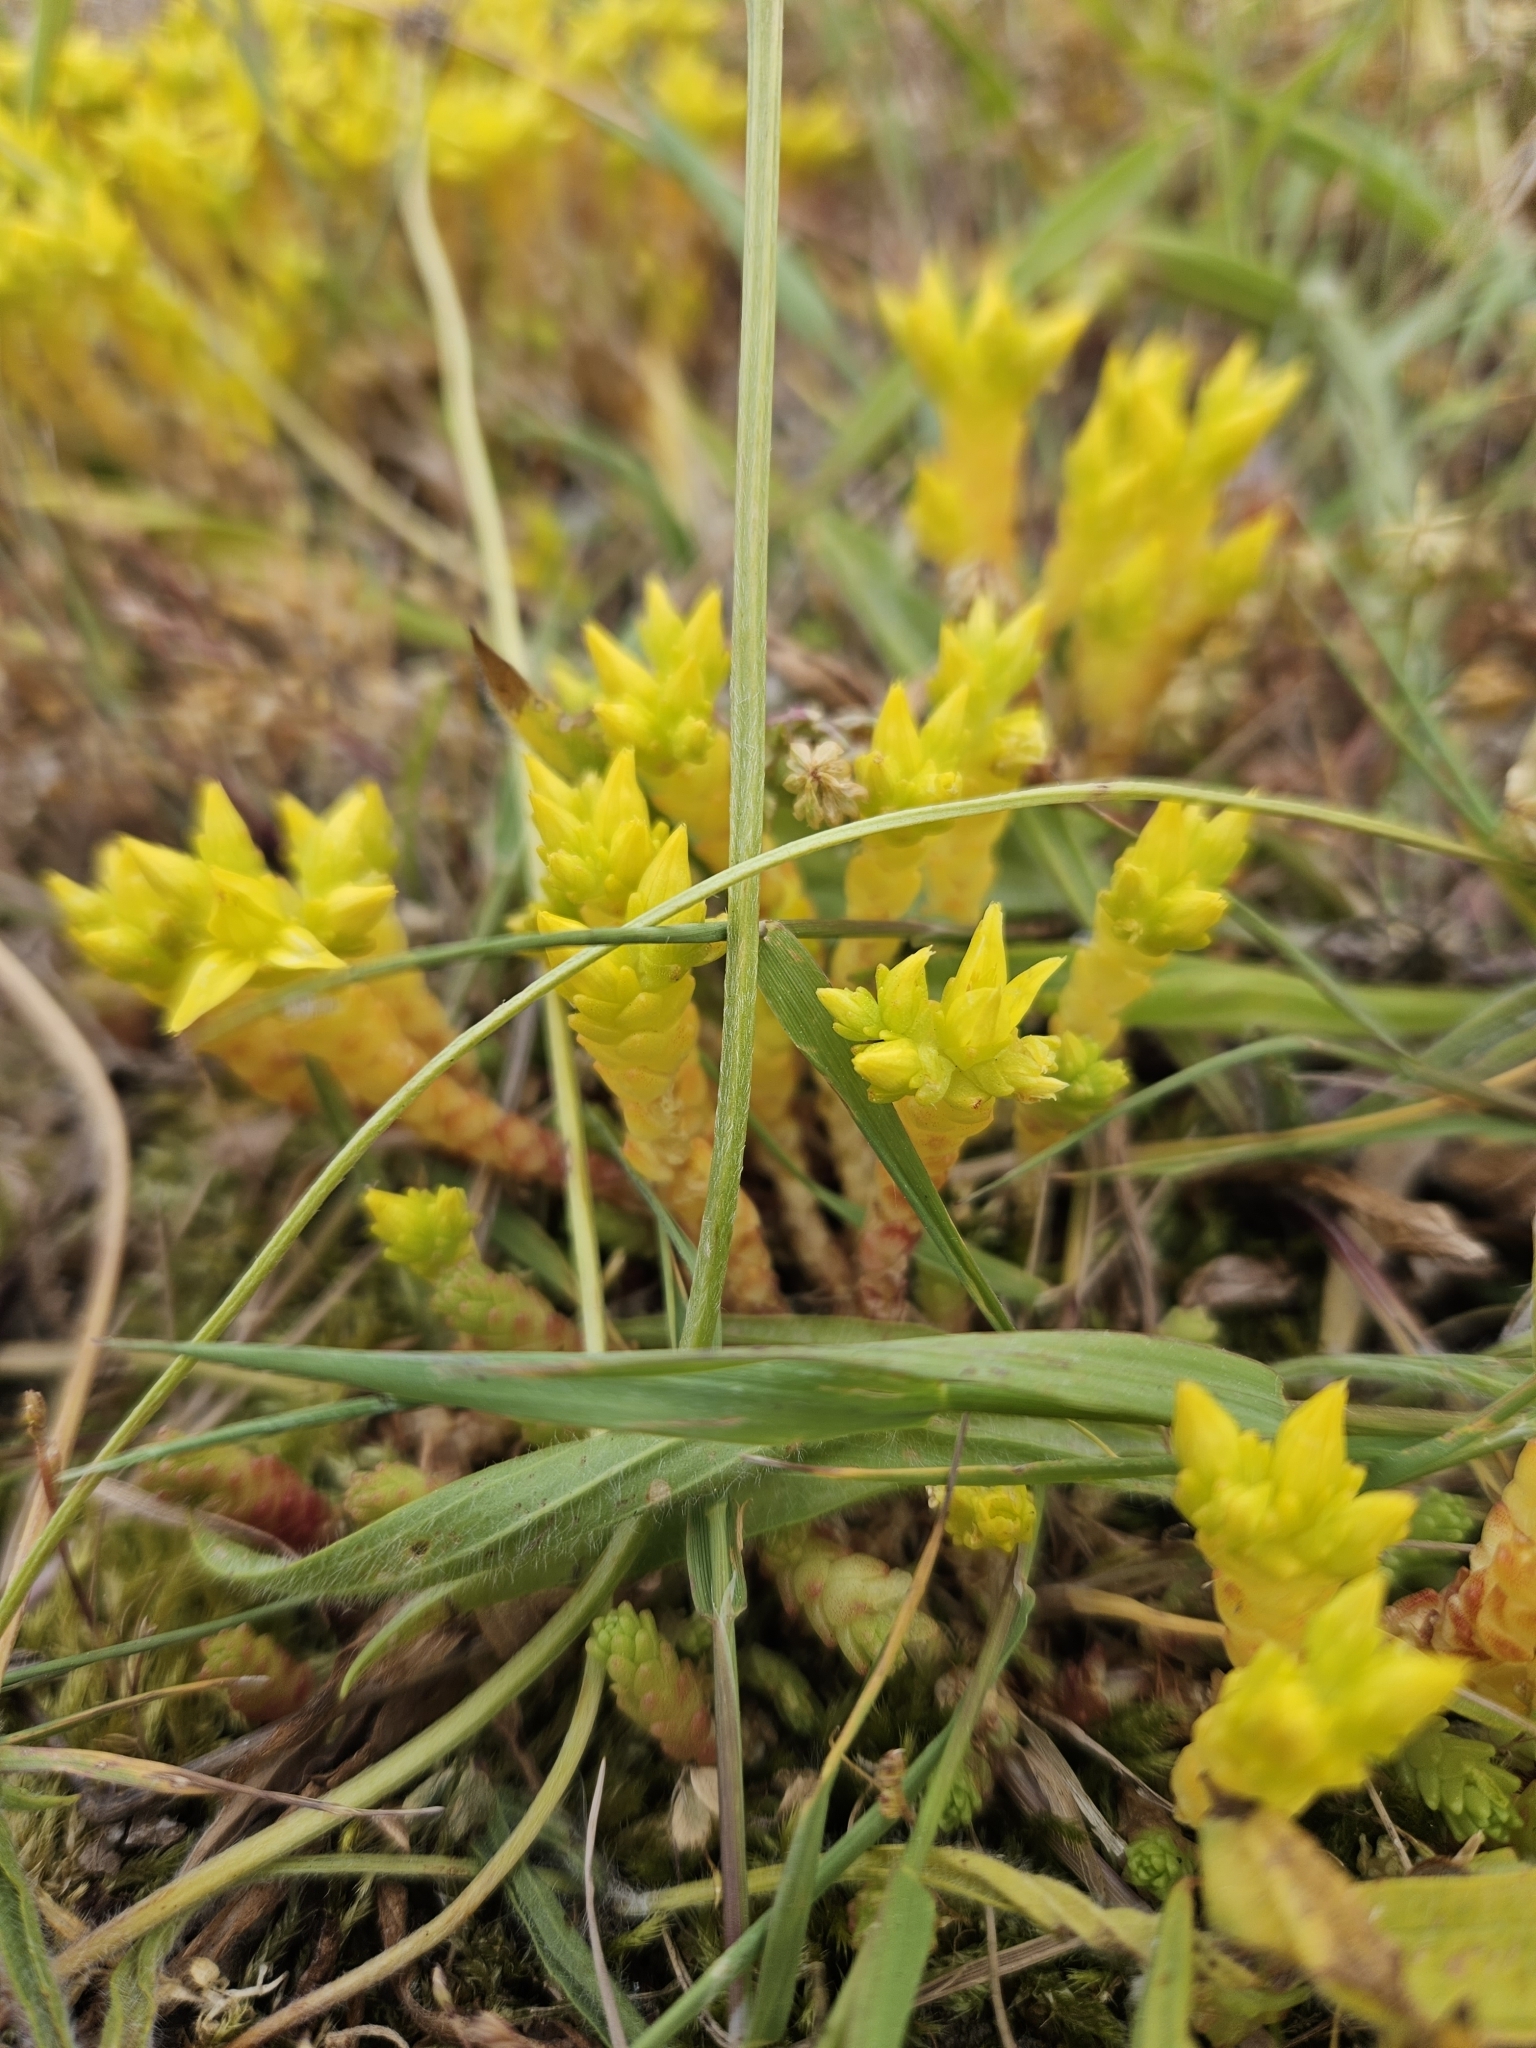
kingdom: Plantae
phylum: Tracheophyta
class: Magnoliopsida
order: Saxifragales
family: Crassulaceae
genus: Sedum
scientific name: Sedum acre
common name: Biting stonecrop
